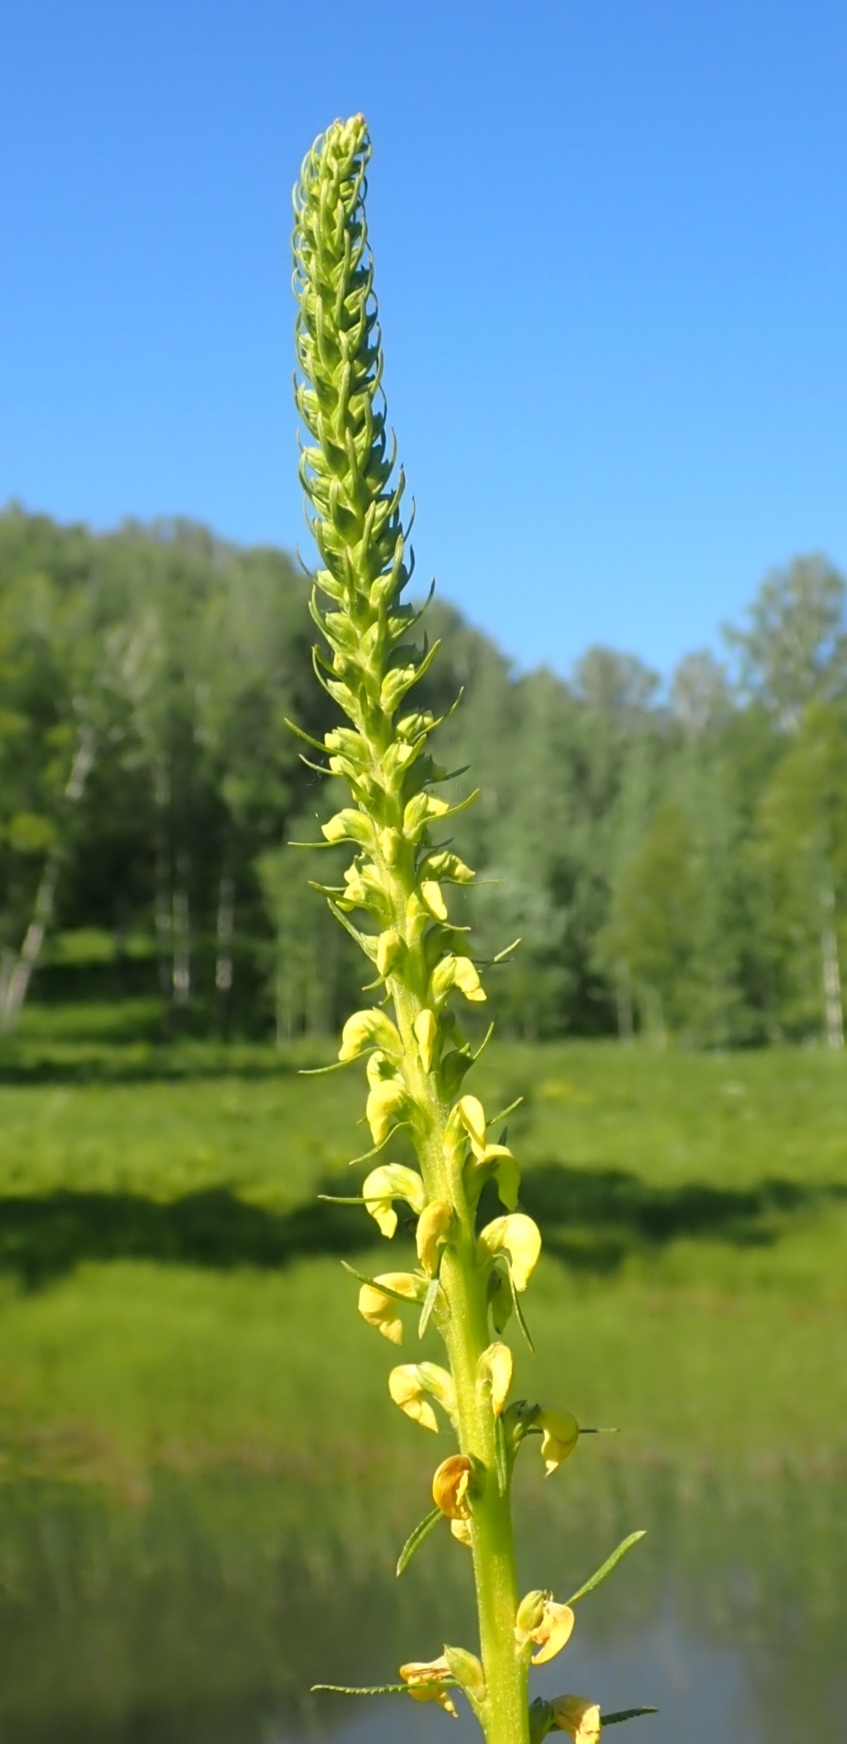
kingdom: Plantae
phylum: Tracheophyta
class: Magnoliopsida
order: Lamiales
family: Orobanchaceae
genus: Pedicularis
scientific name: Pedicularis incarnata
